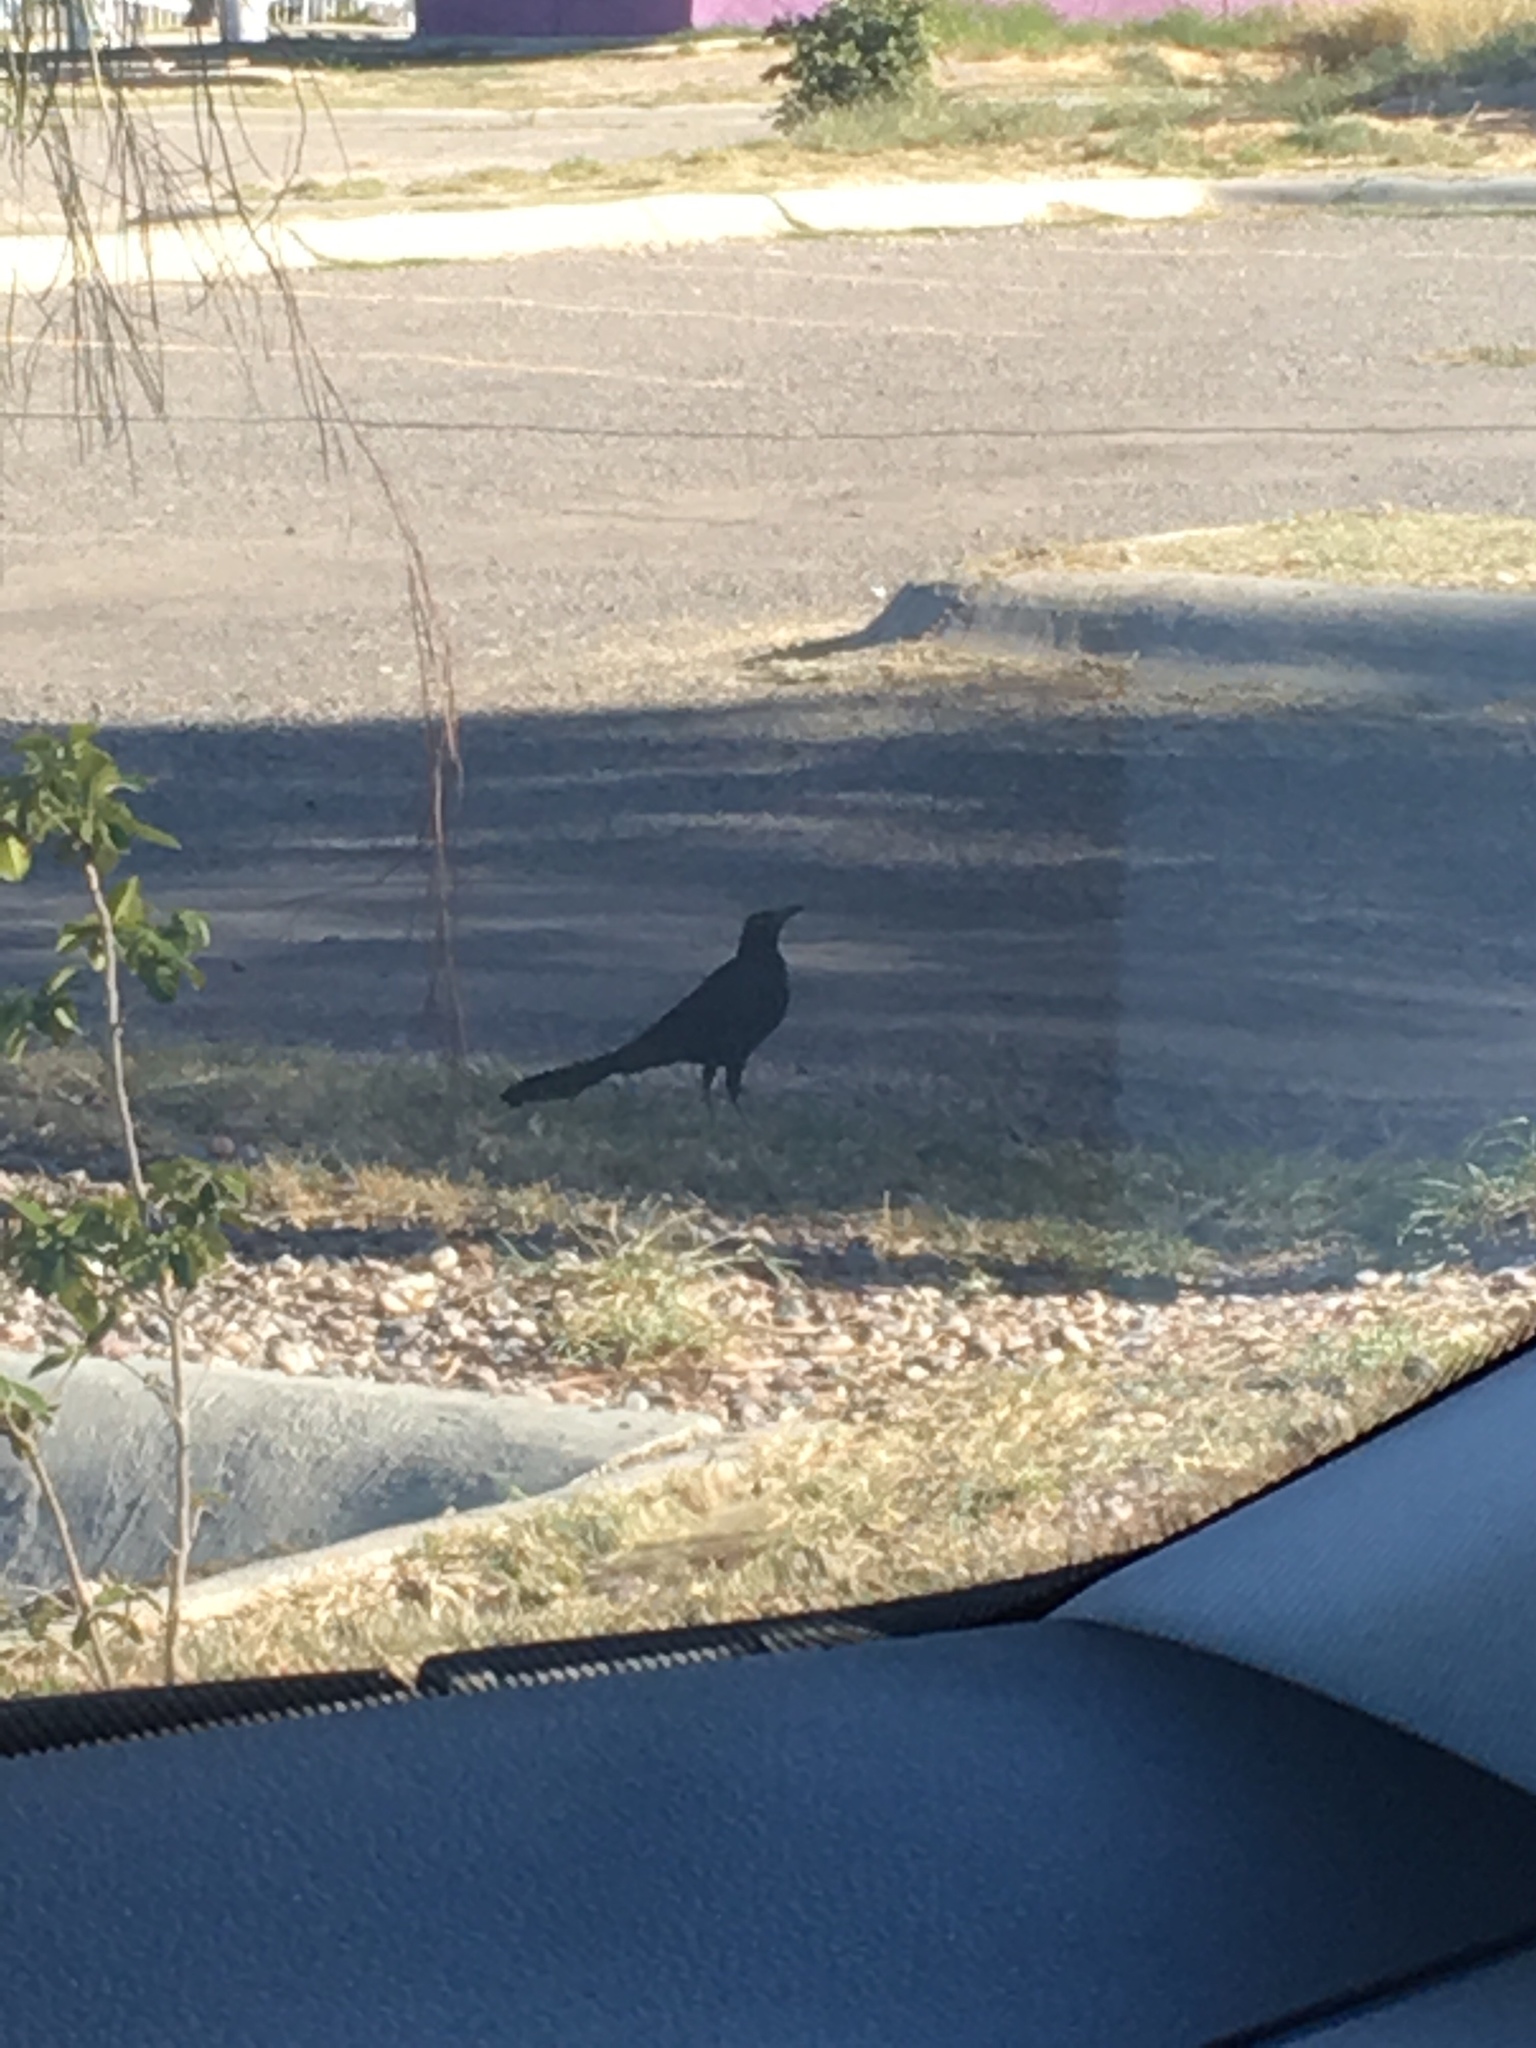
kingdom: Animalia
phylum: Chordata
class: Aves
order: Passeriformes
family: Icteridae
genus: Quiscalus
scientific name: Quiscalus mexicanus
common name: Great-tailed grackle
